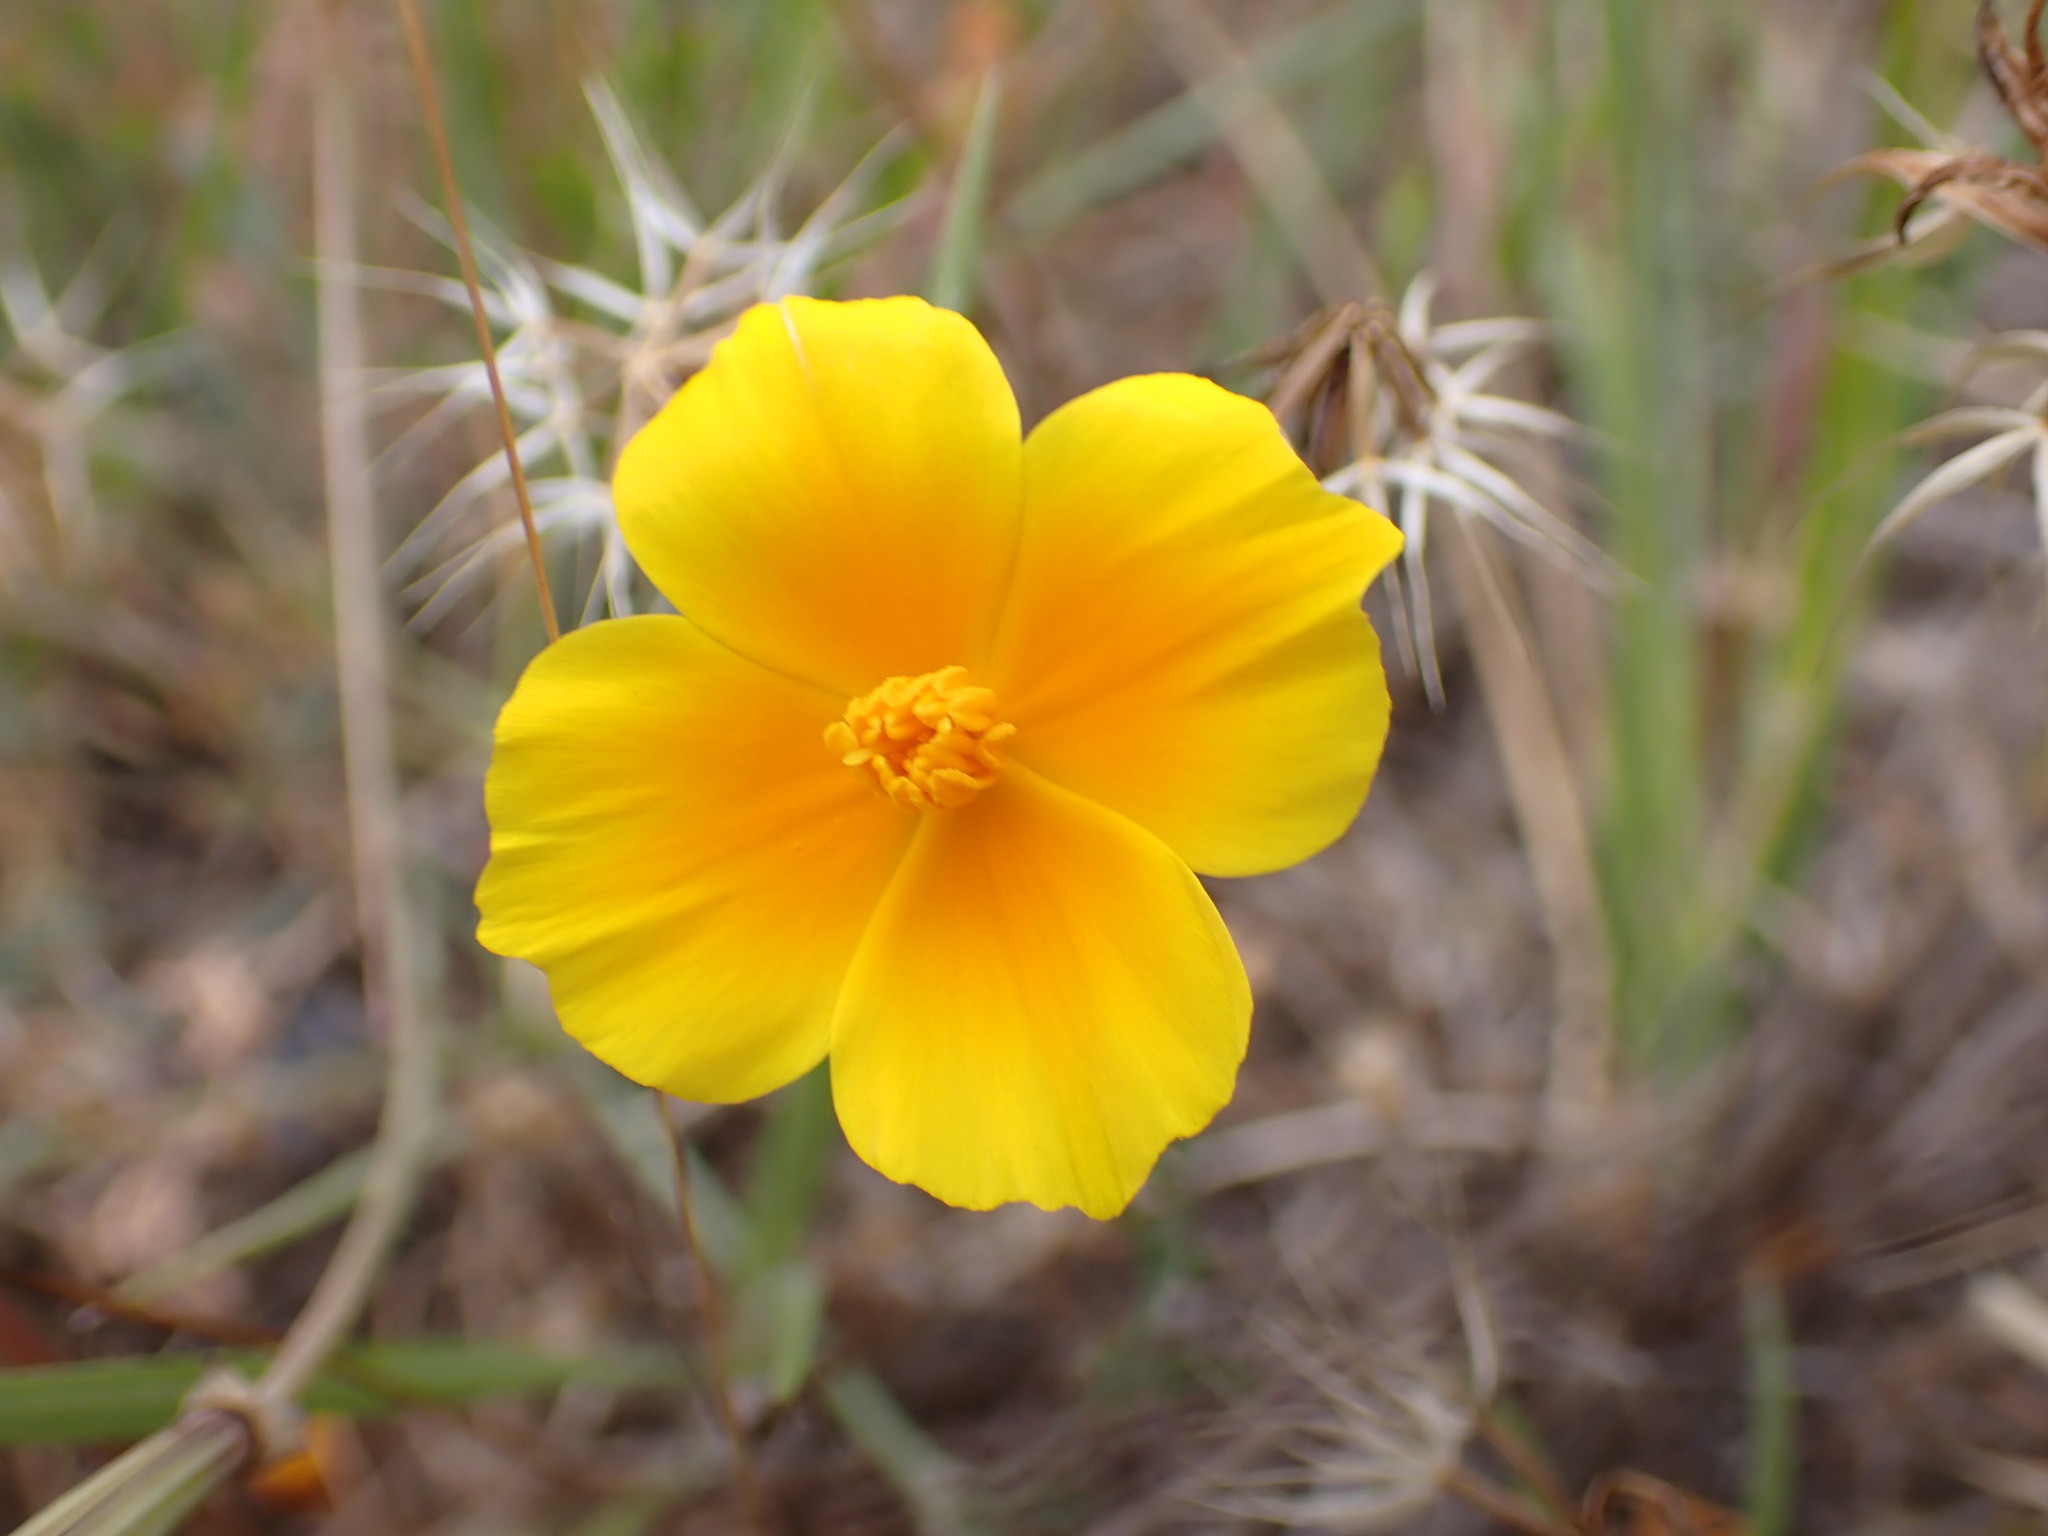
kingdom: Plantae
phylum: Tracheophyta
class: Magnoliopsida
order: Ranunculales
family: Papaveraceae
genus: Eschscholzia
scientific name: Eschscholzia californica
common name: California poppy
